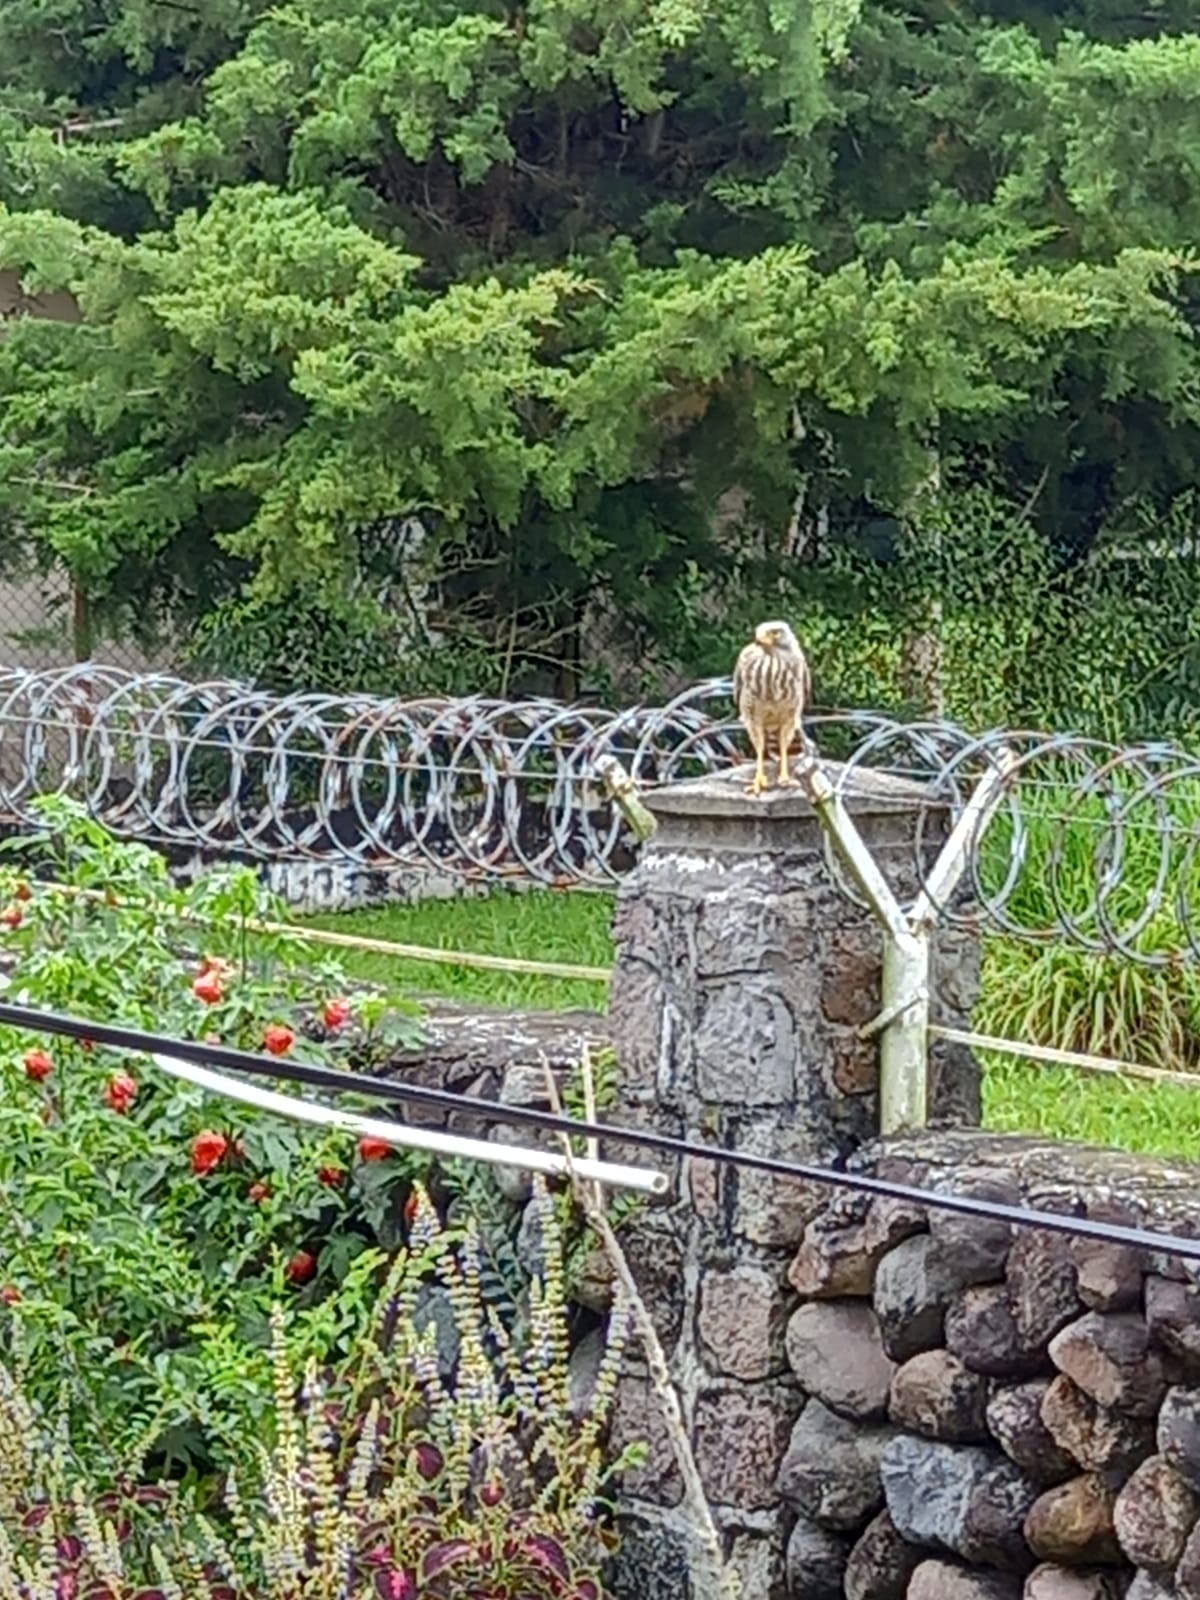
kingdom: Animalia
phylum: Chordata
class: Aves
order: Accipitriformes
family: Accipitridae
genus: Rupornis
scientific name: Rupornis magnirostris
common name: Roadside hawk
